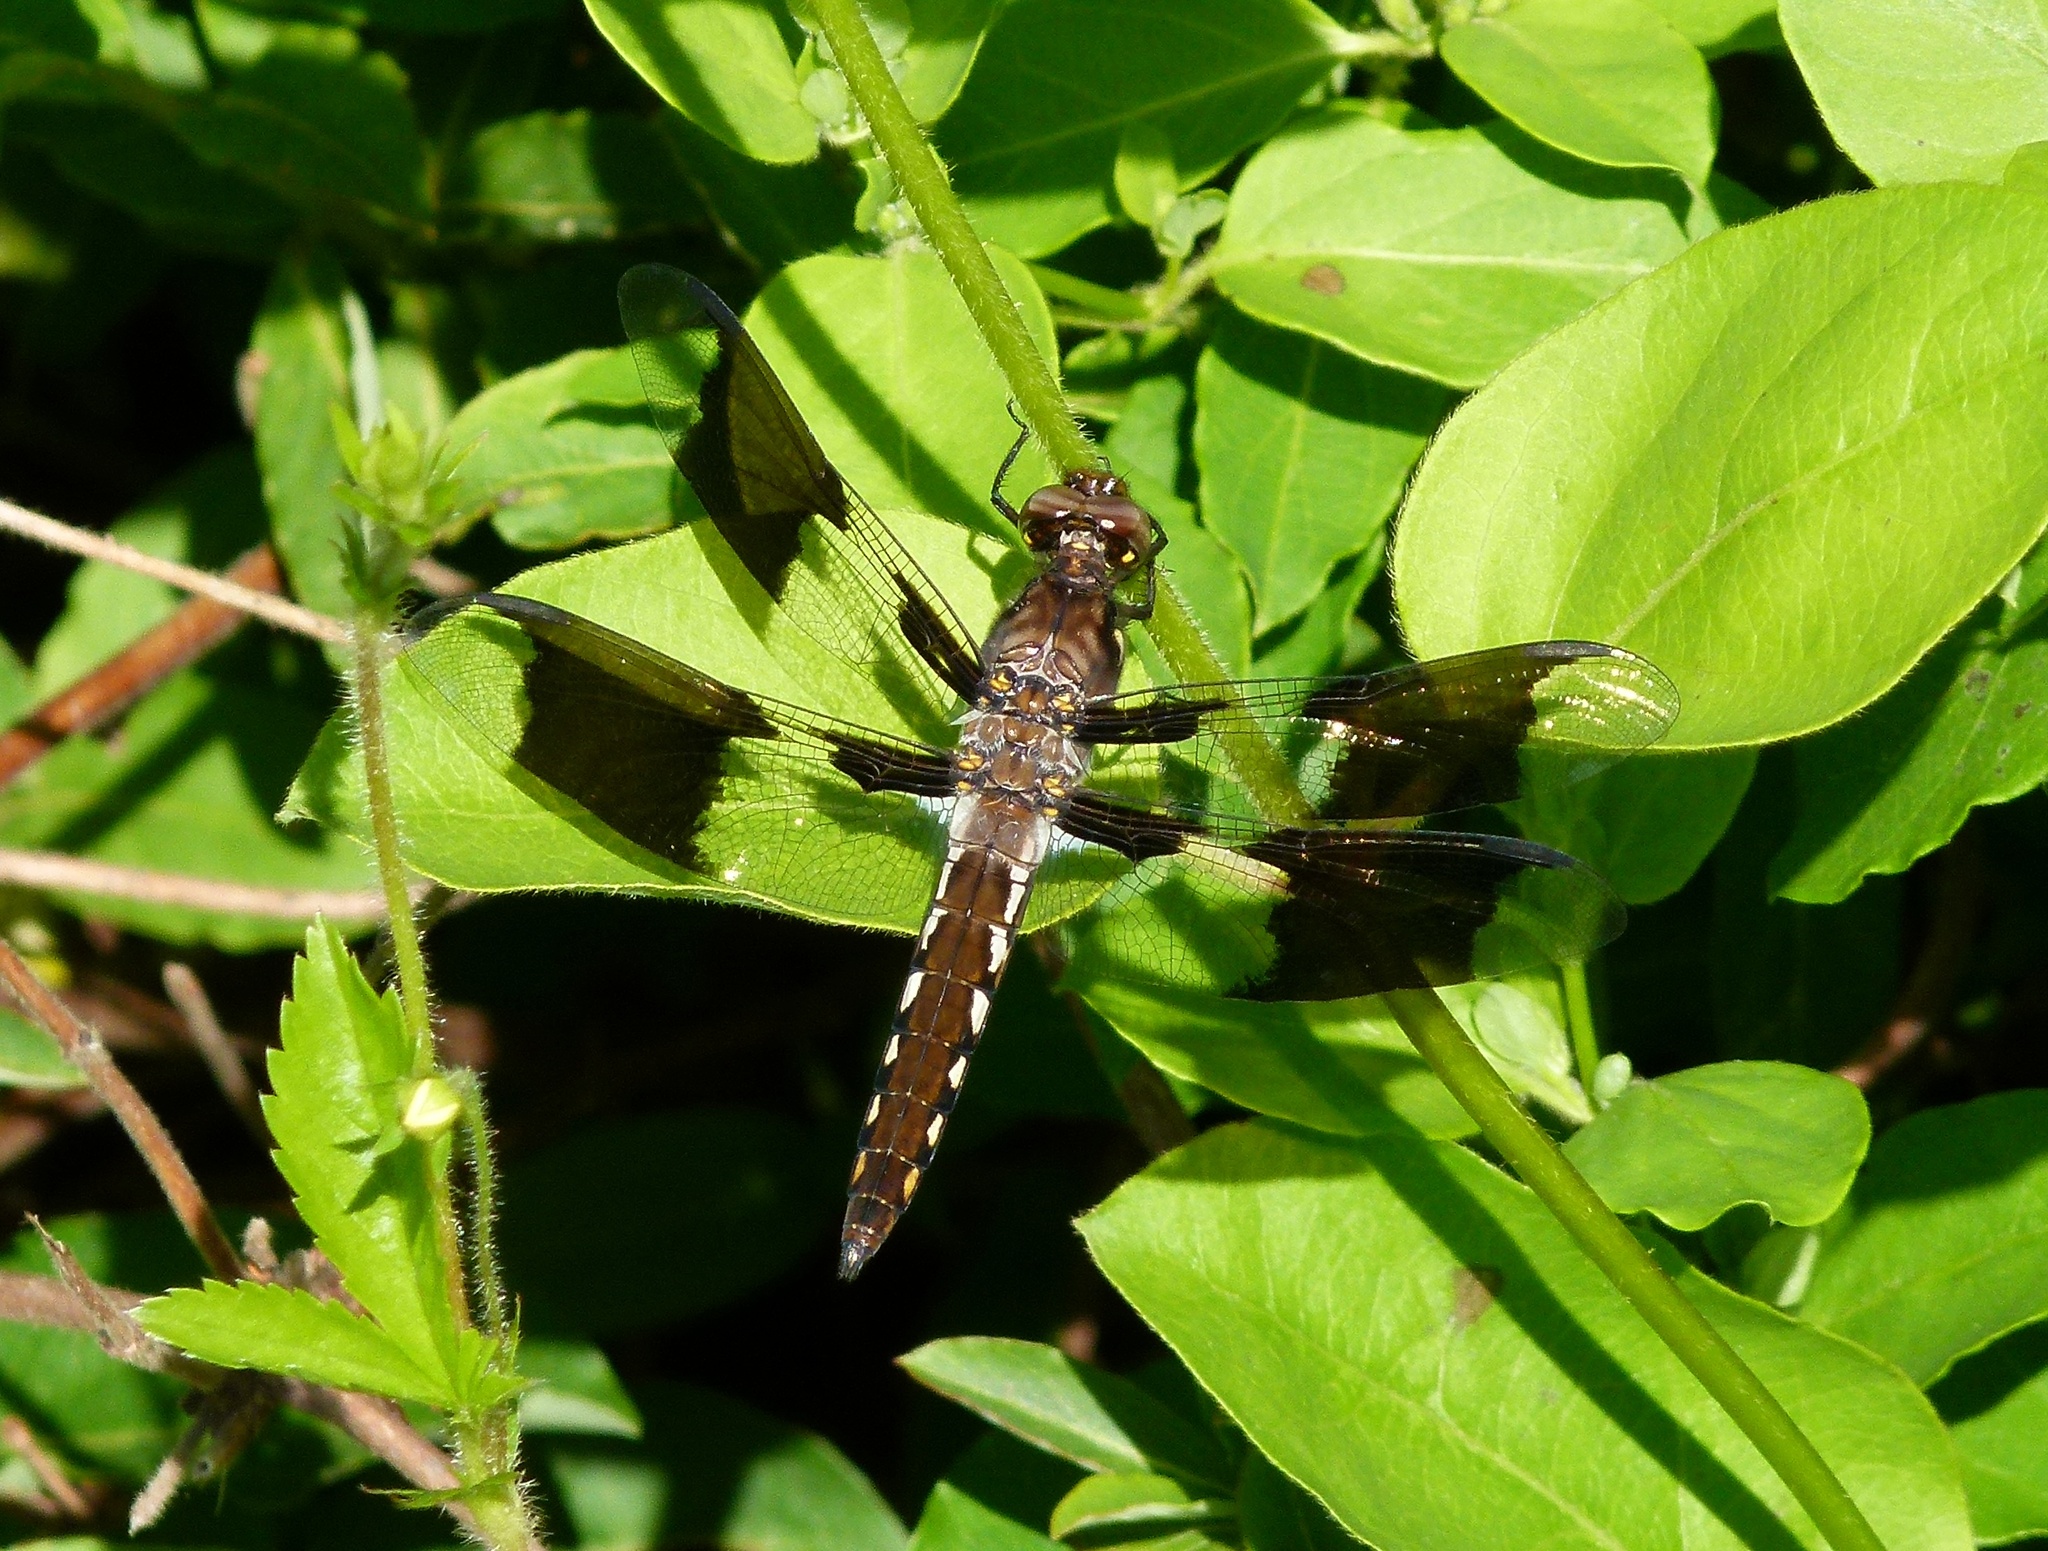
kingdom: Animalia
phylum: Arthropoda
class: Insecta
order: Odonata
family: Libellulidae
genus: Plathemis
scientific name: Plathemis lydia
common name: Common whitetail
